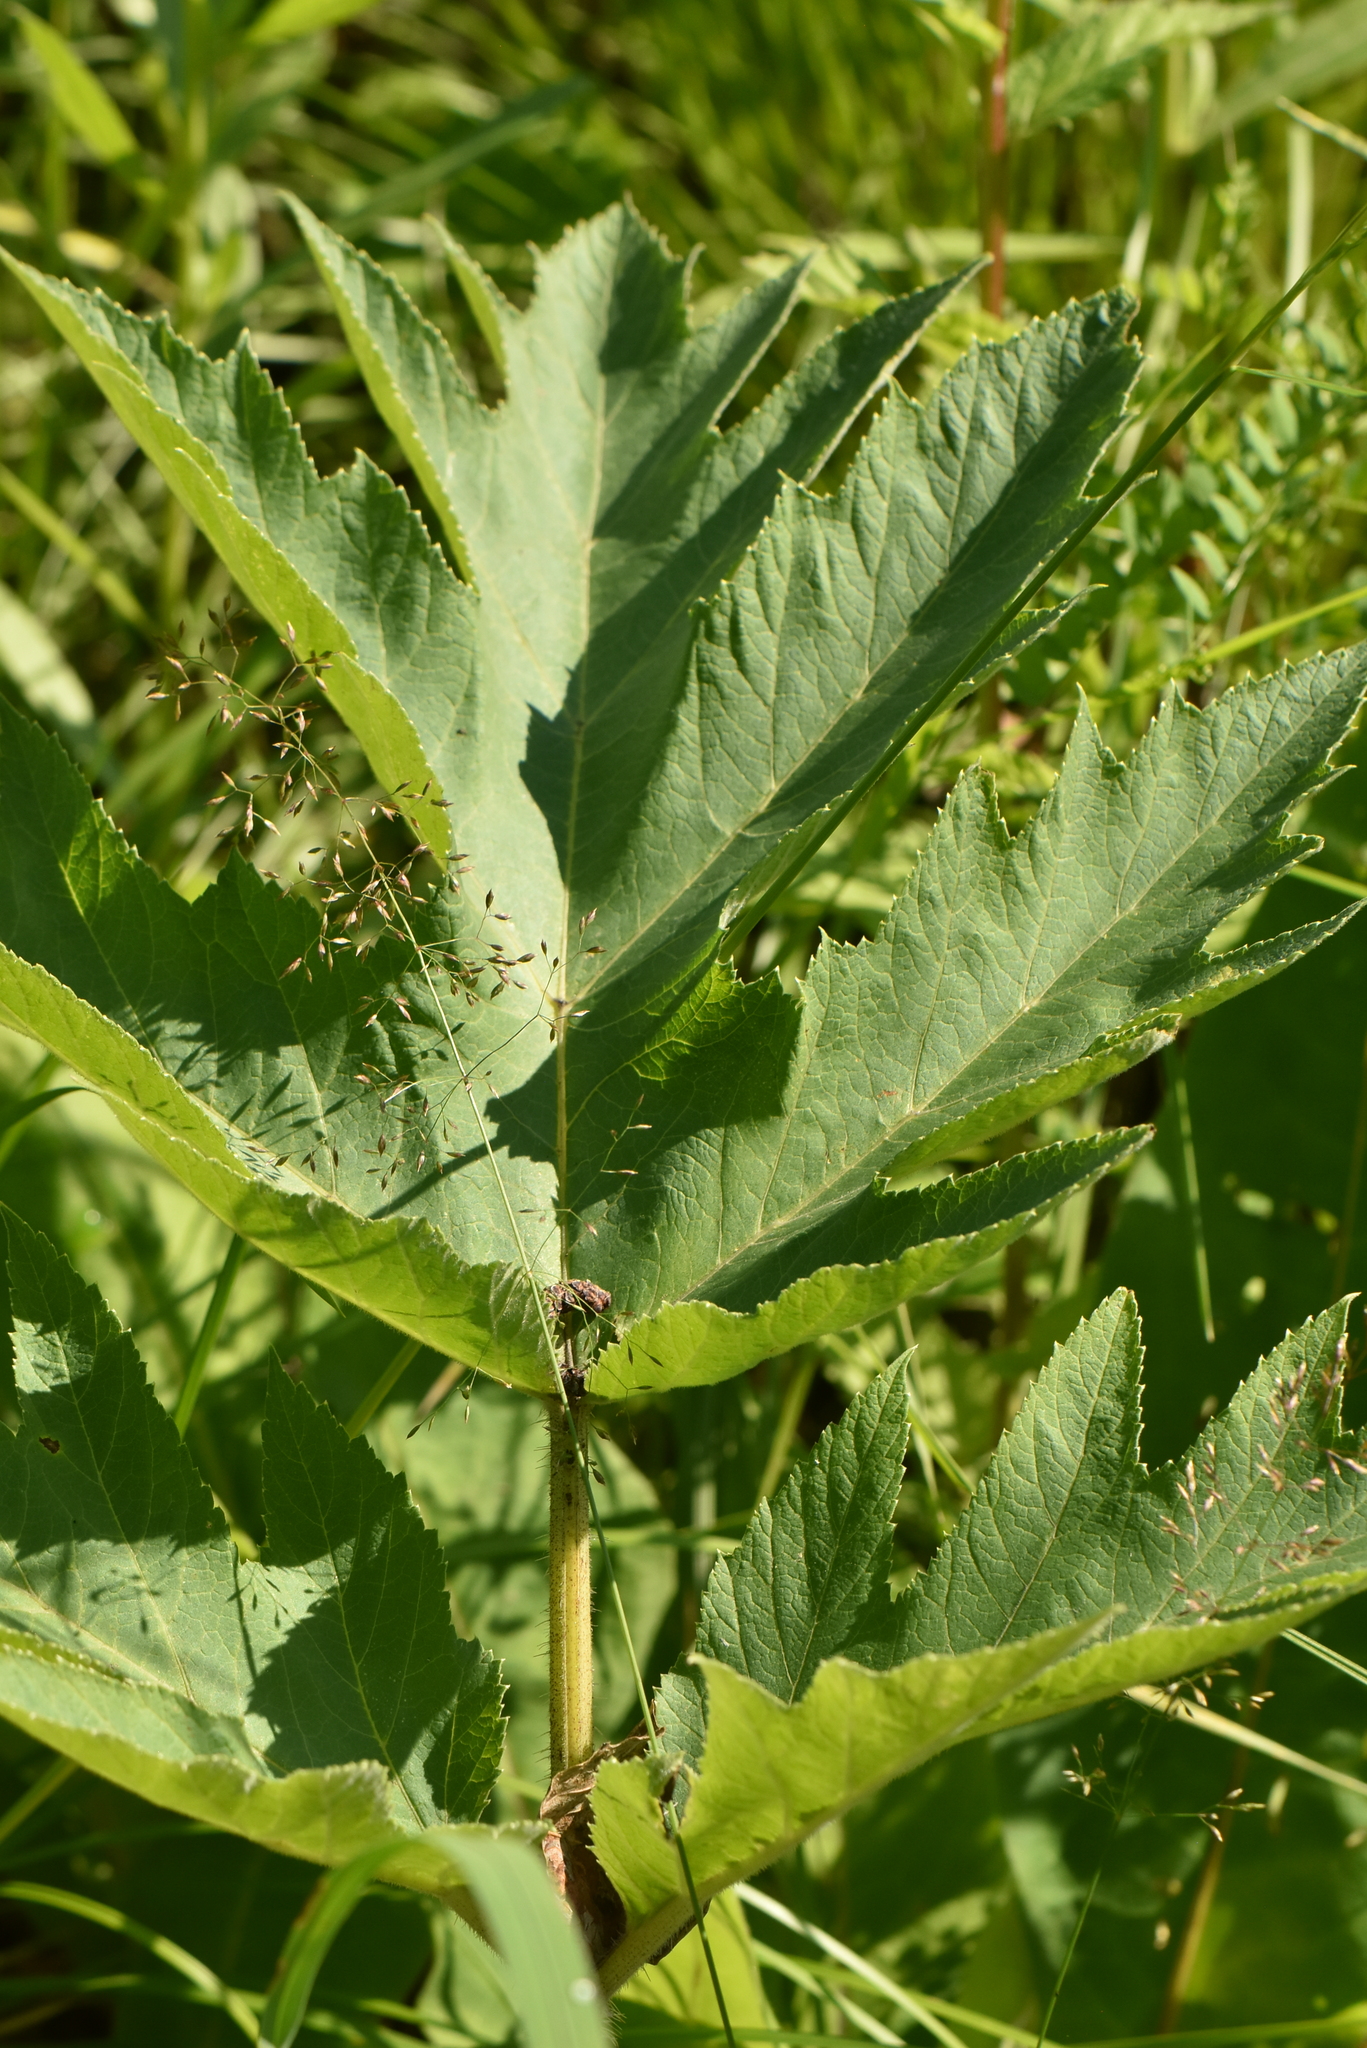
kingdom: Plantae
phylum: Tracheophyta
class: Magnoliopsida
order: Apiales
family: Apiaceae
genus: Heracleum
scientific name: Heracleum dissectum
